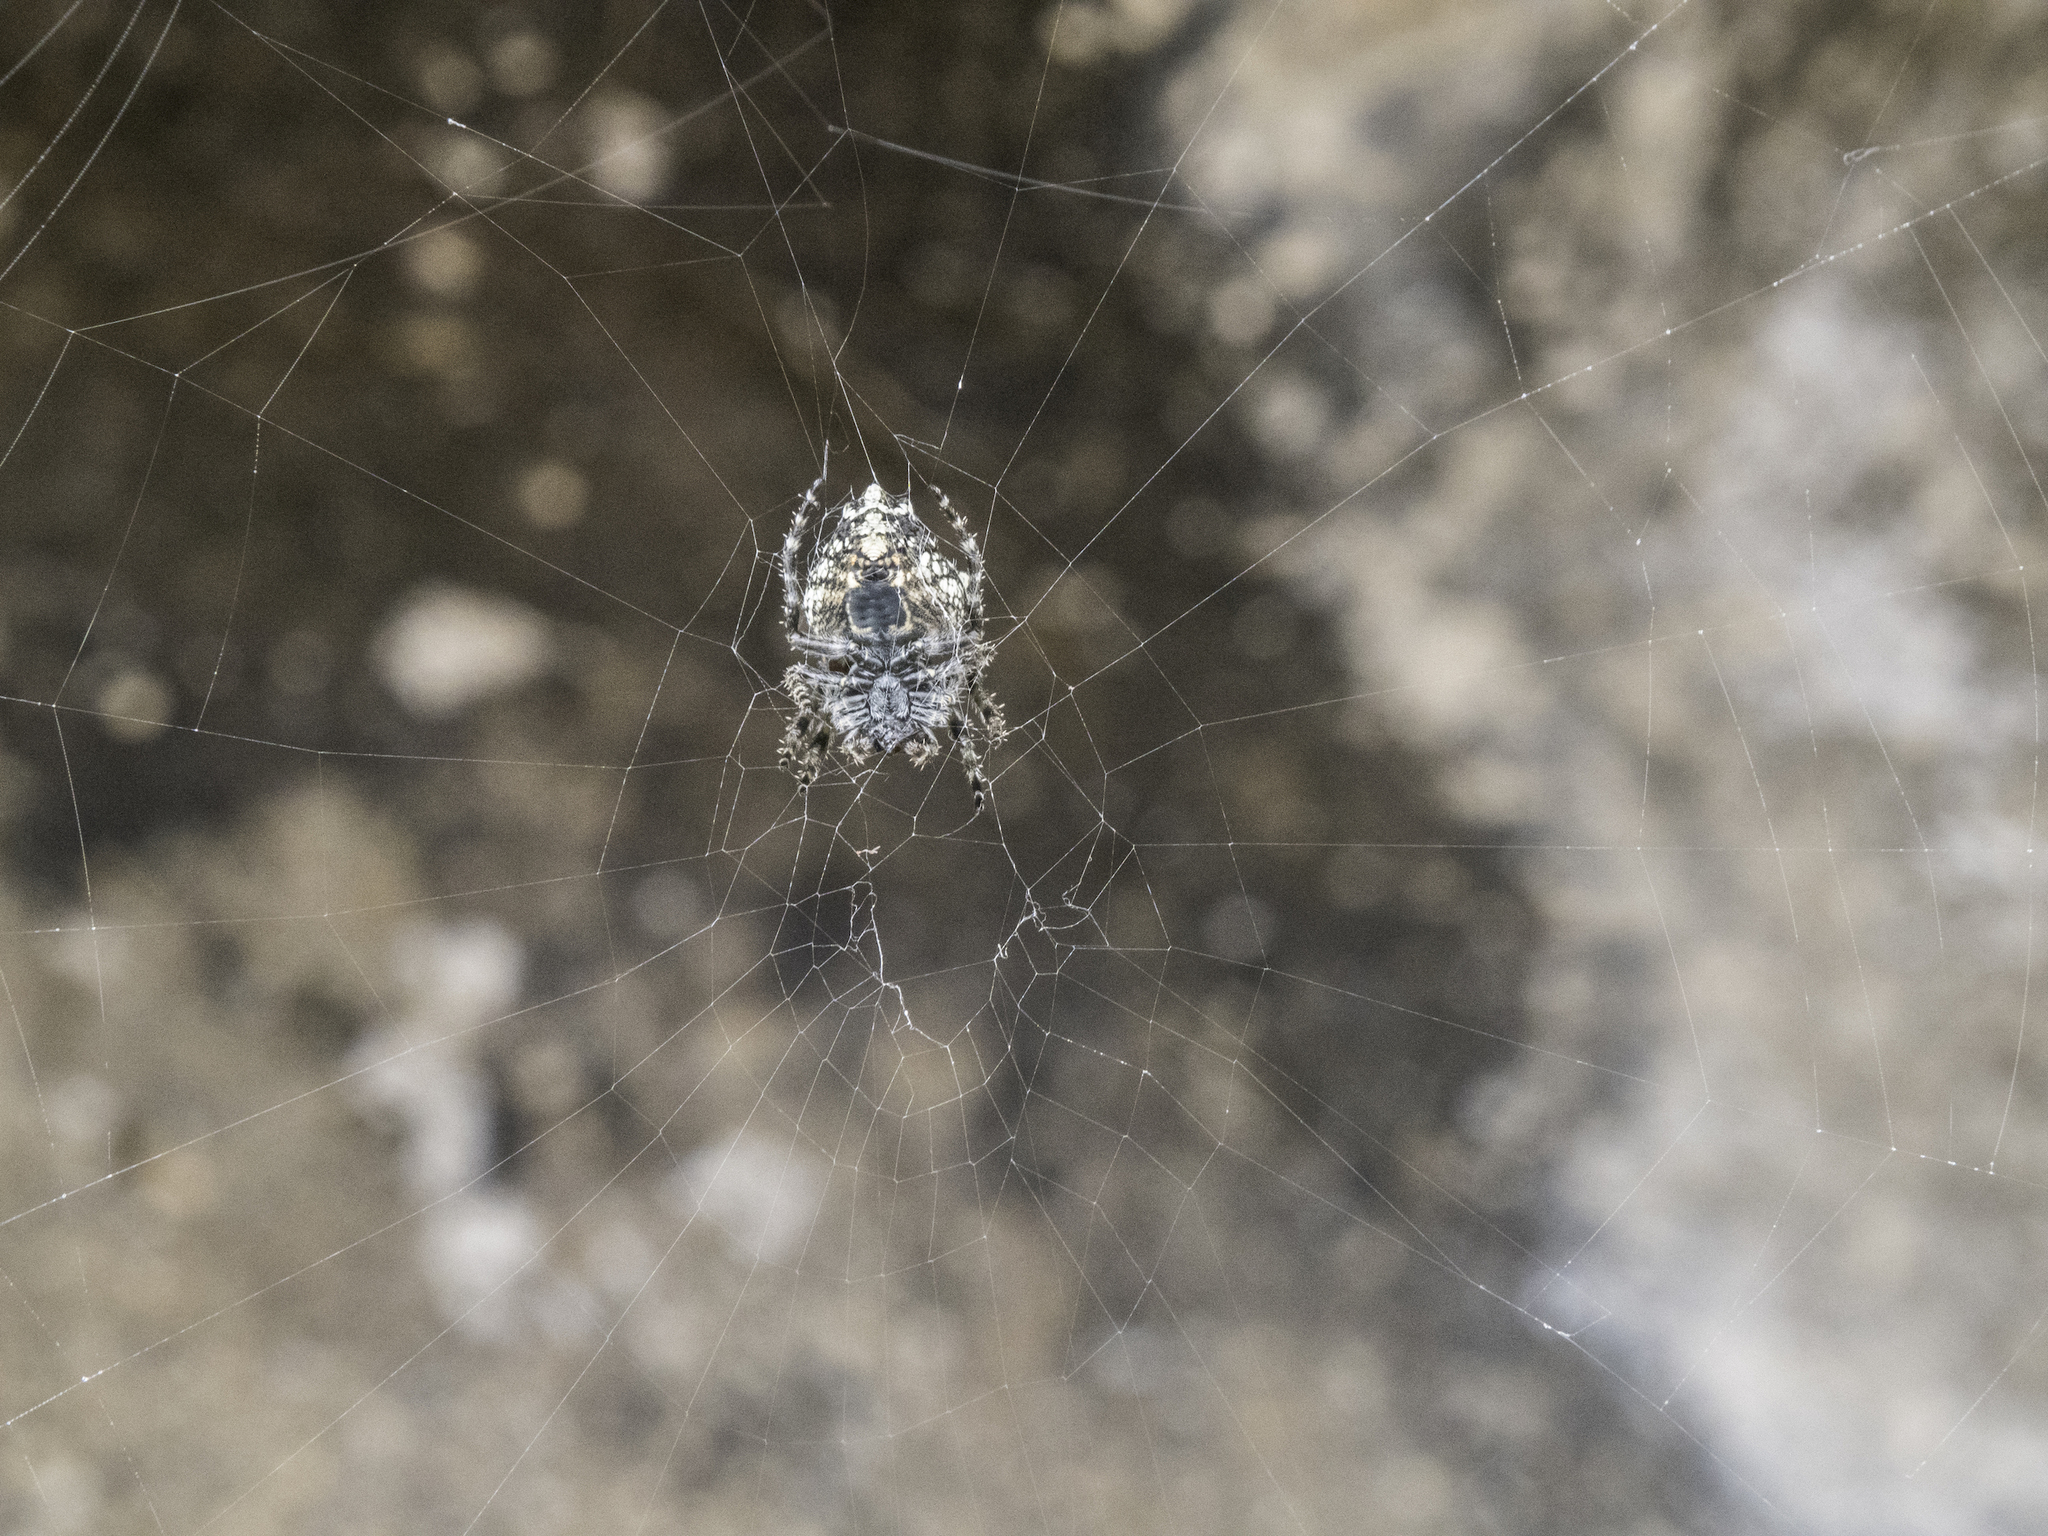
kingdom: Animalia
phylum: Arthropoda
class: Arachnida
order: Araneae
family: Araneidae
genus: Eriophora
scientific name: Eriophora pustulosa
